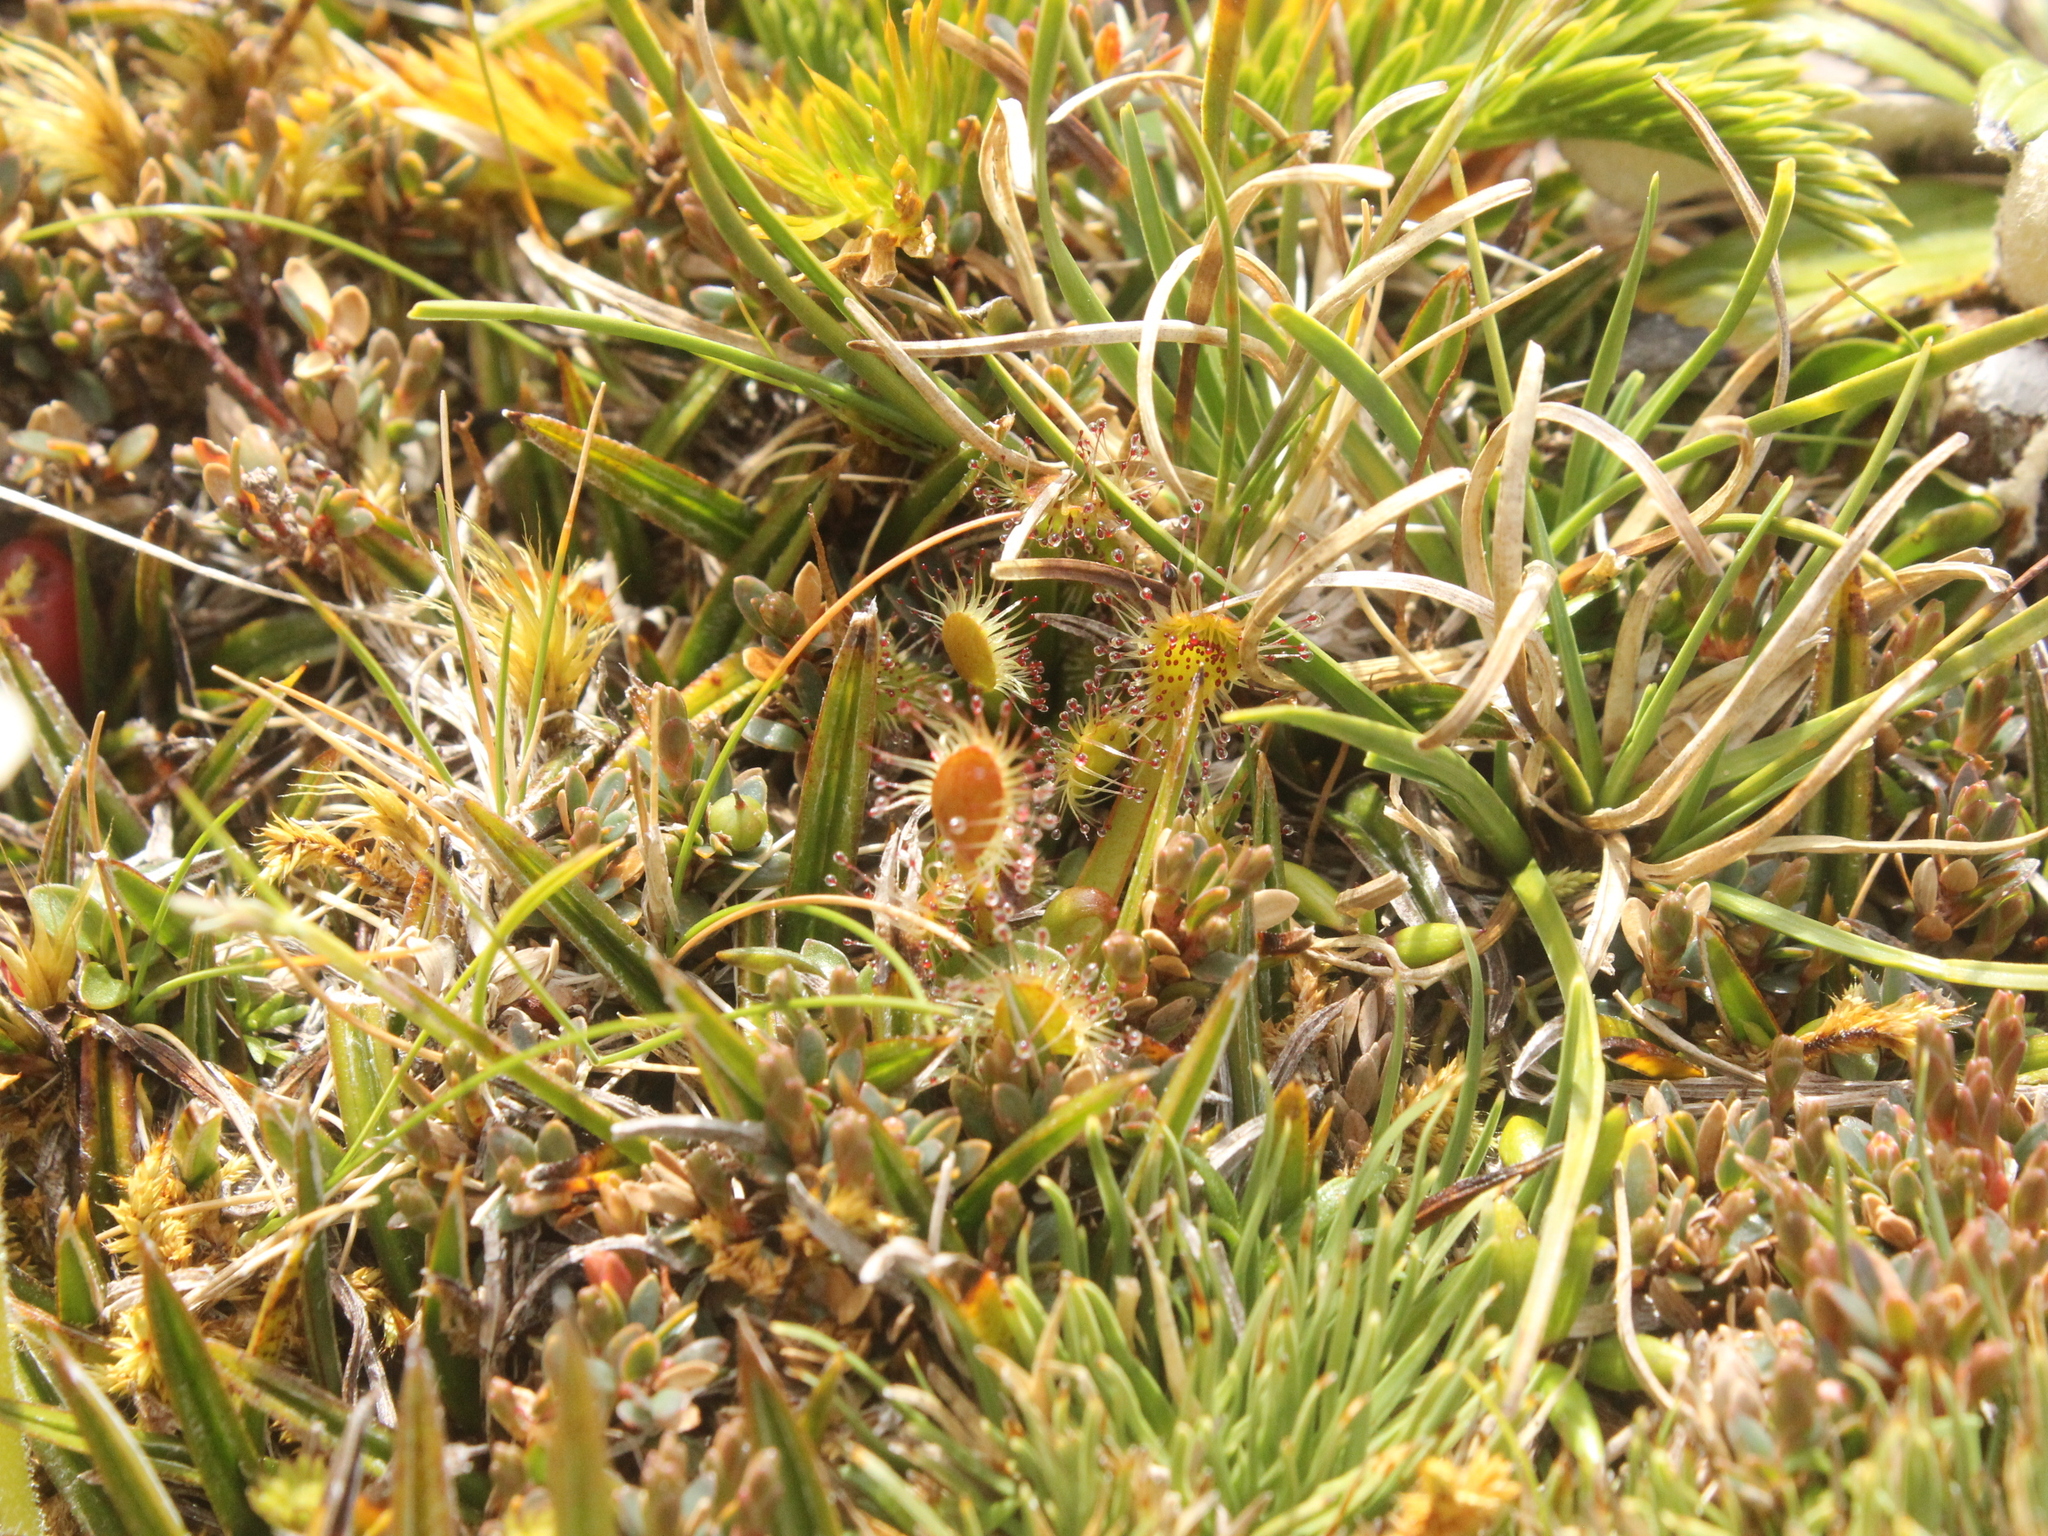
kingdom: Plantae
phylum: Tracheophyta
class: Magnoliopsida
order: Caryophyllales
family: Droseraceae
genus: Drosera
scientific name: Drosera stenopetala
